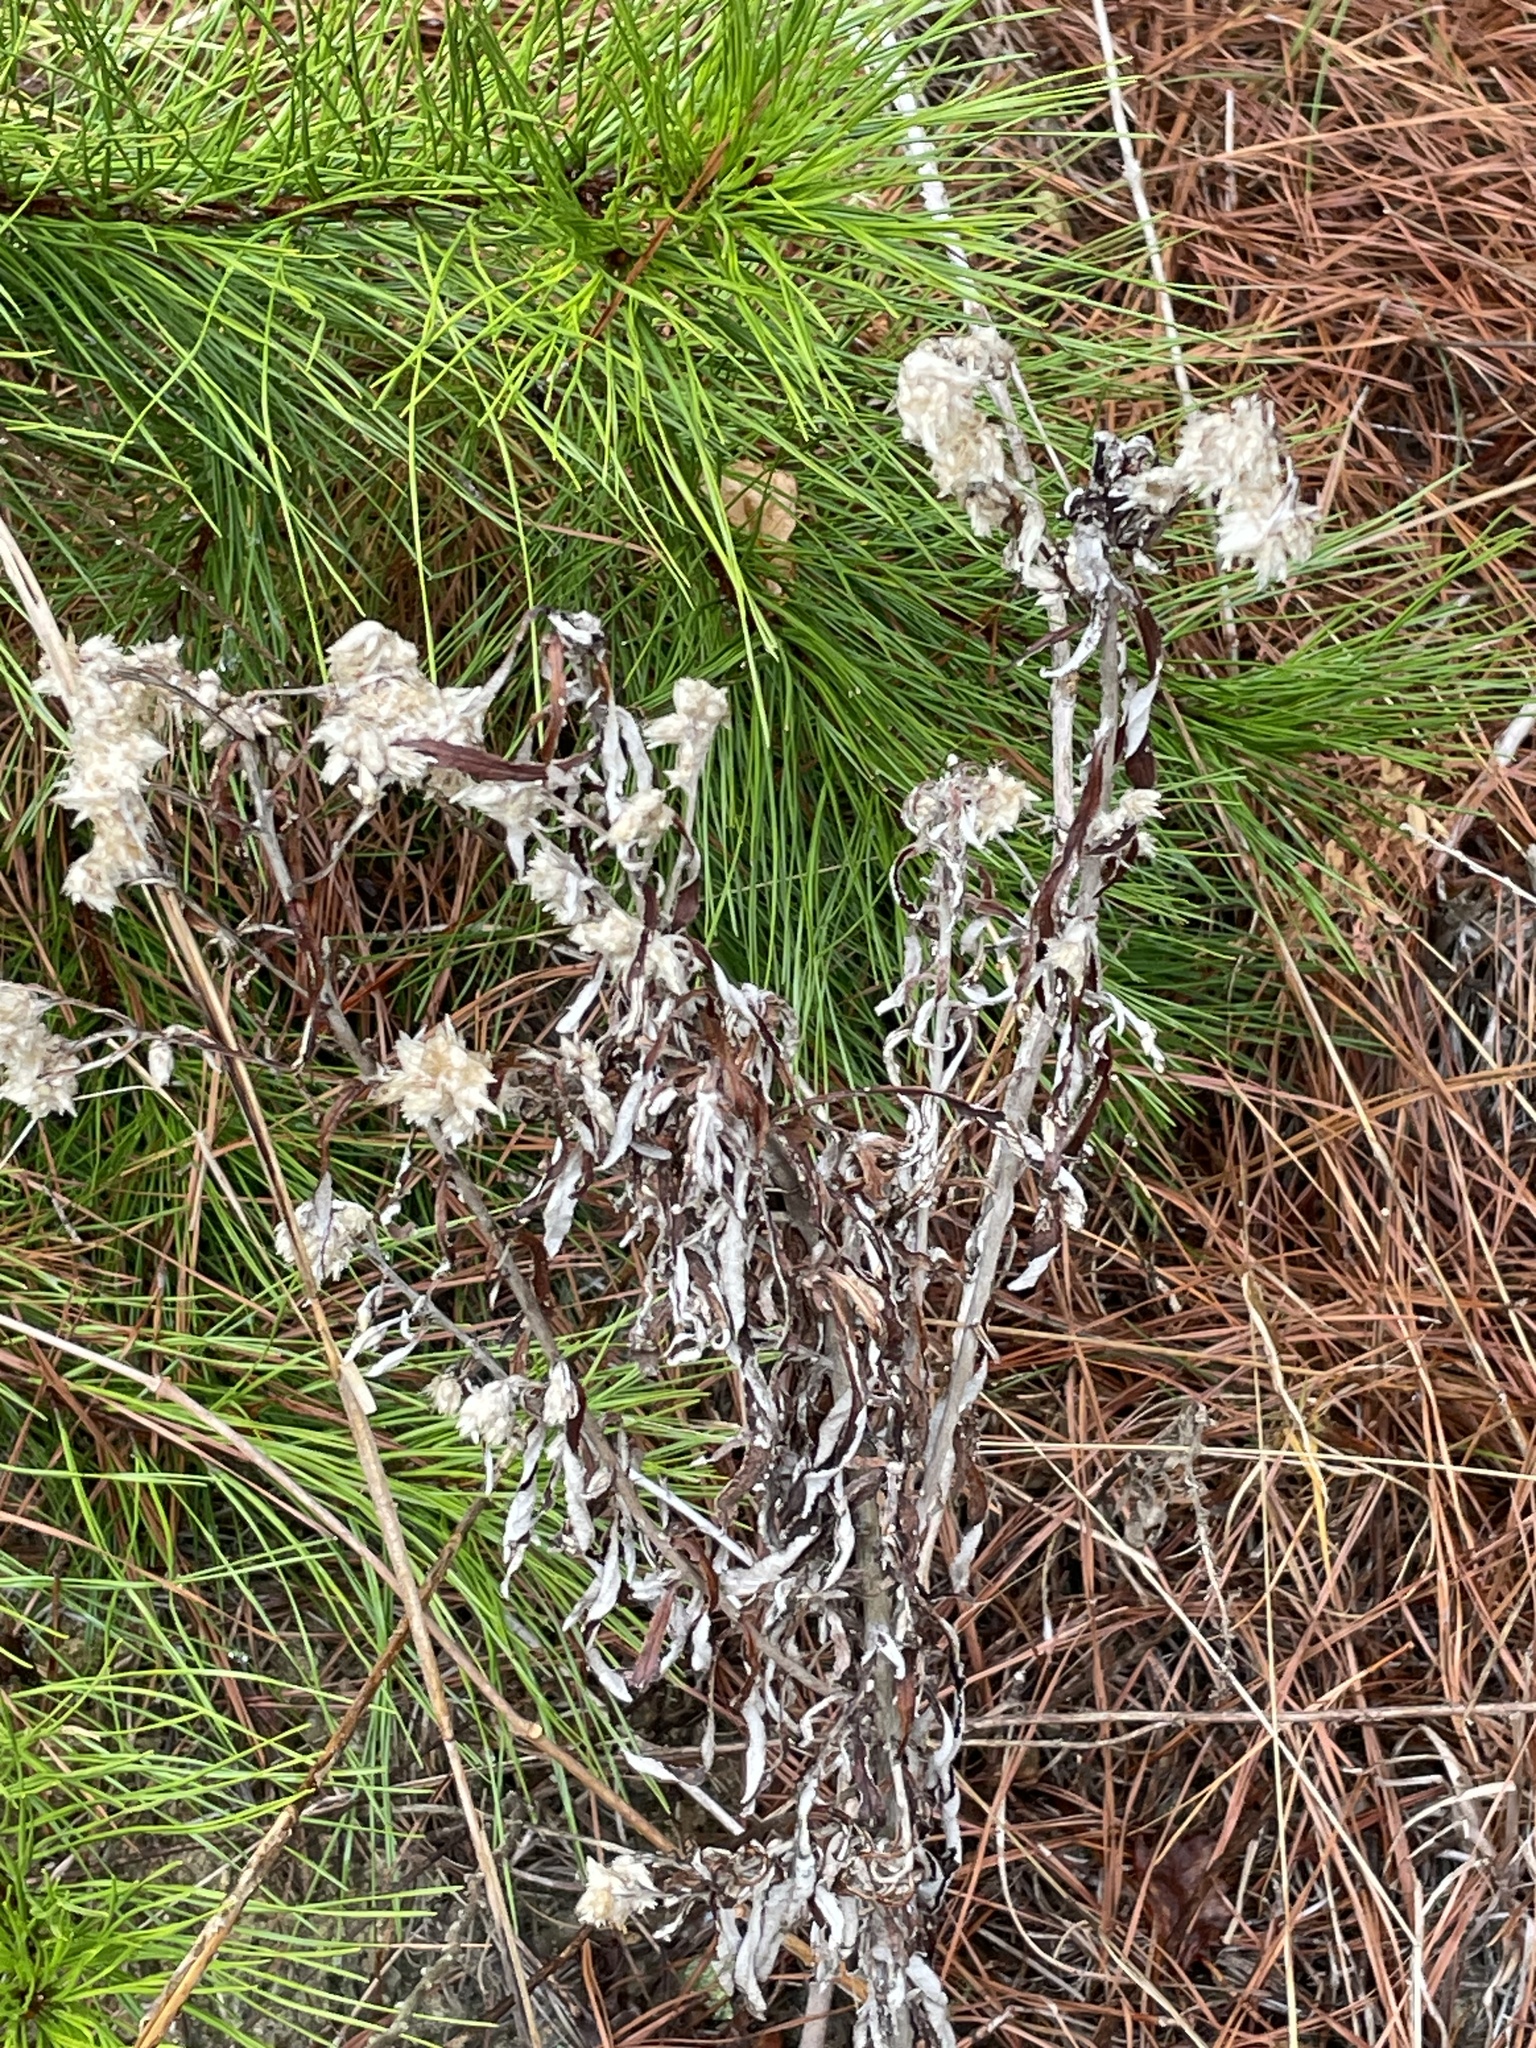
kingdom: Plantae
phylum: Tracheophyta
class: Magnoliopsida
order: Asterales
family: Asteraceae
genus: Pseudognaphalium
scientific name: Pseudognaphalium obtusifolium
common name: Eastern rabbit-tobacco
